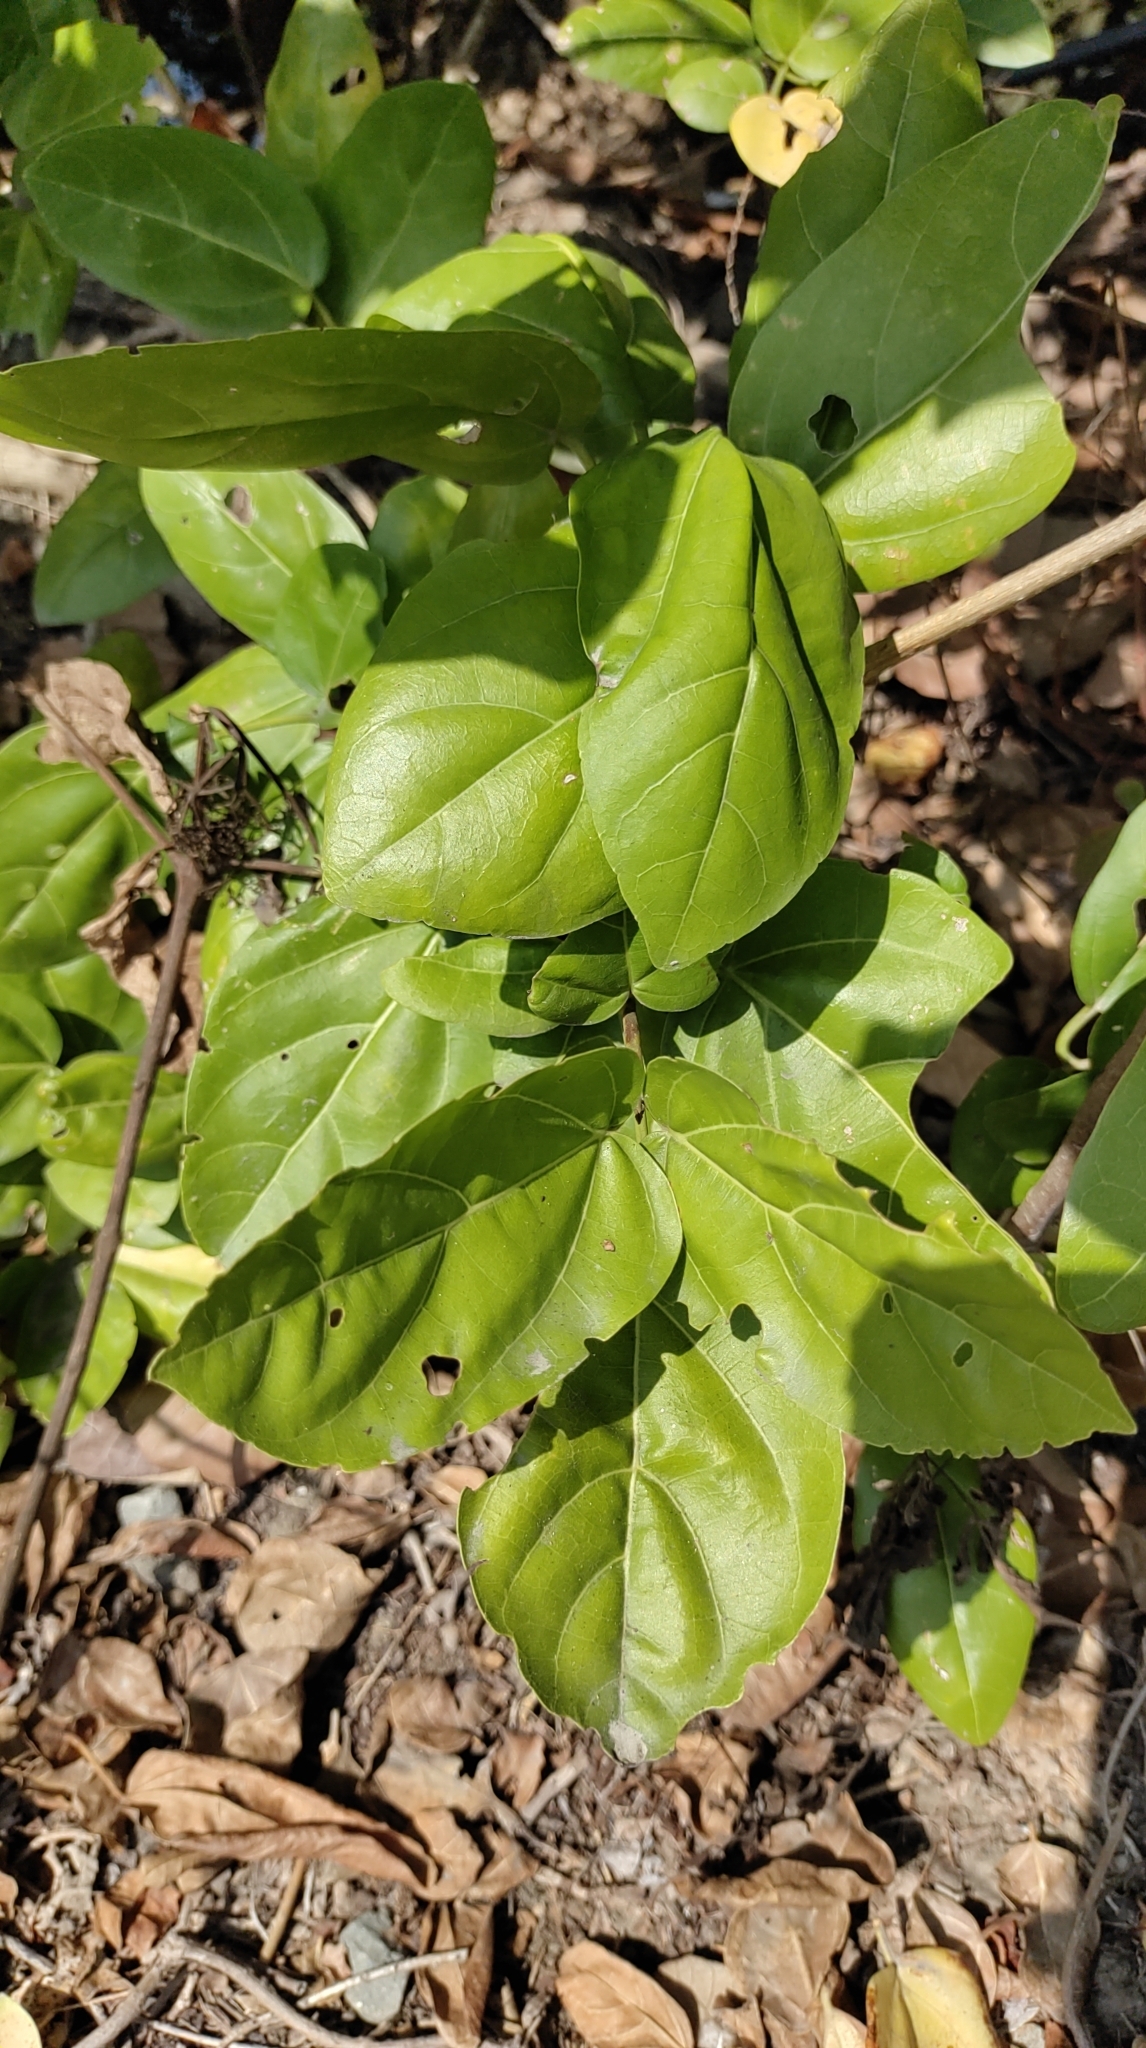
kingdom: Plantae
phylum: Tracheophyta
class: Magnoliopsida
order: Lamiales
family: Lamiaceae
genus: Premna
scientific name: Premna serratifolia
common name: Bastard guelder
